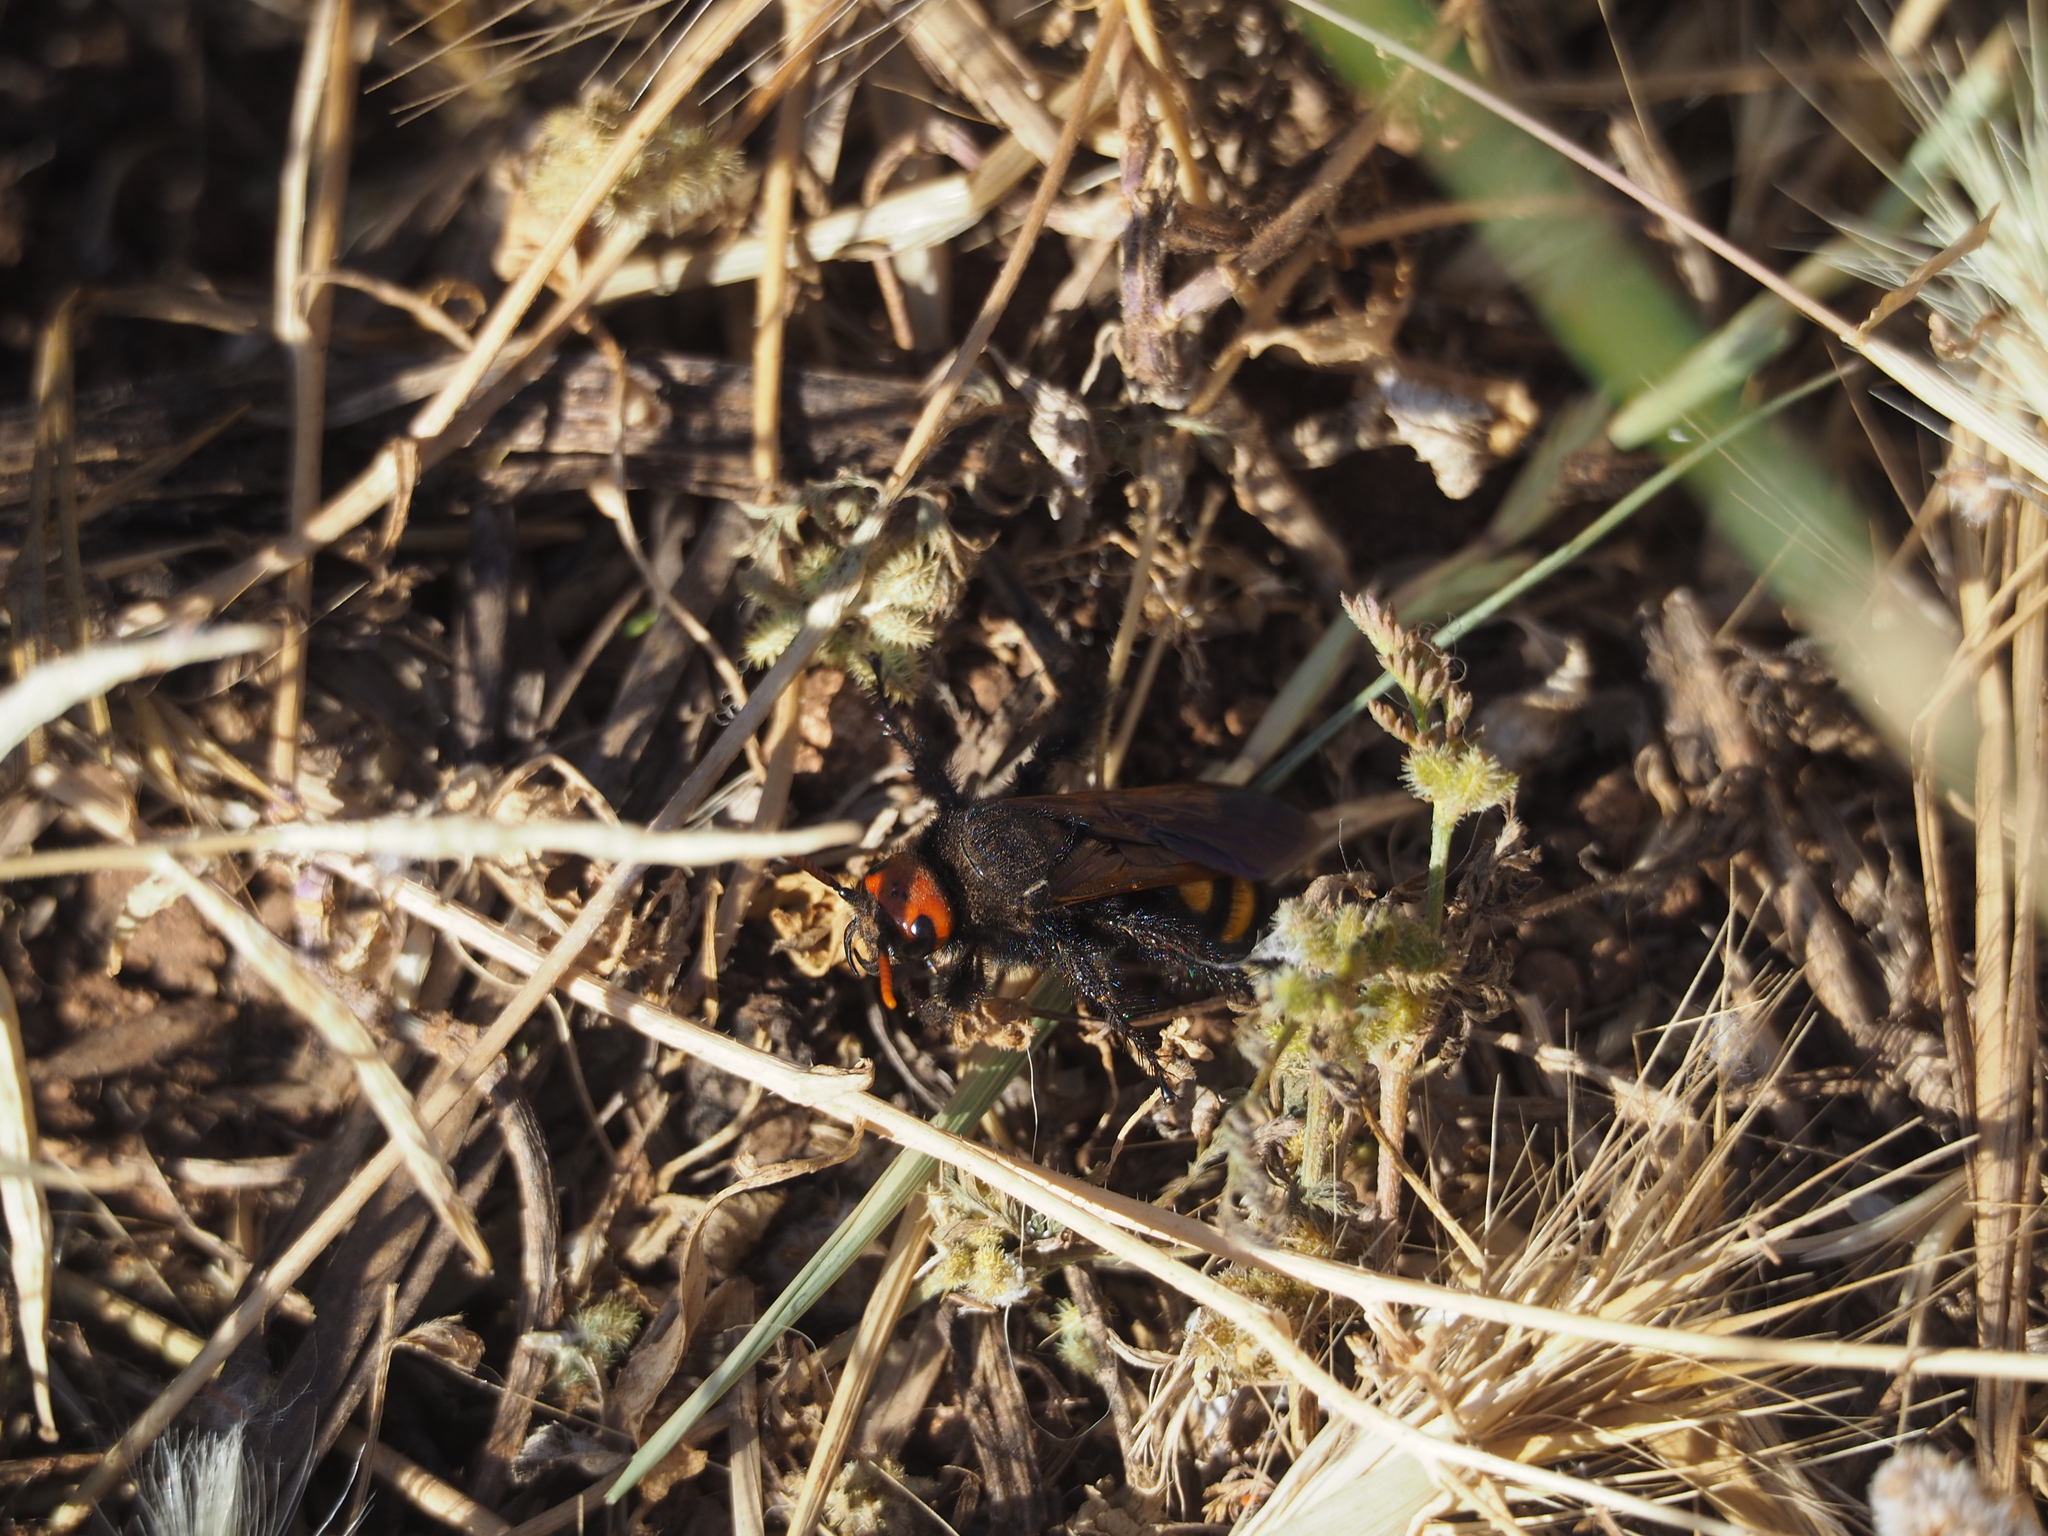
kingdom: Animalia
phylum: Arthropoda
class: Insecta
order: Hymenoptera
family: Scoliidae
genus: Megascolia
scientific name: Megascolia bidens
